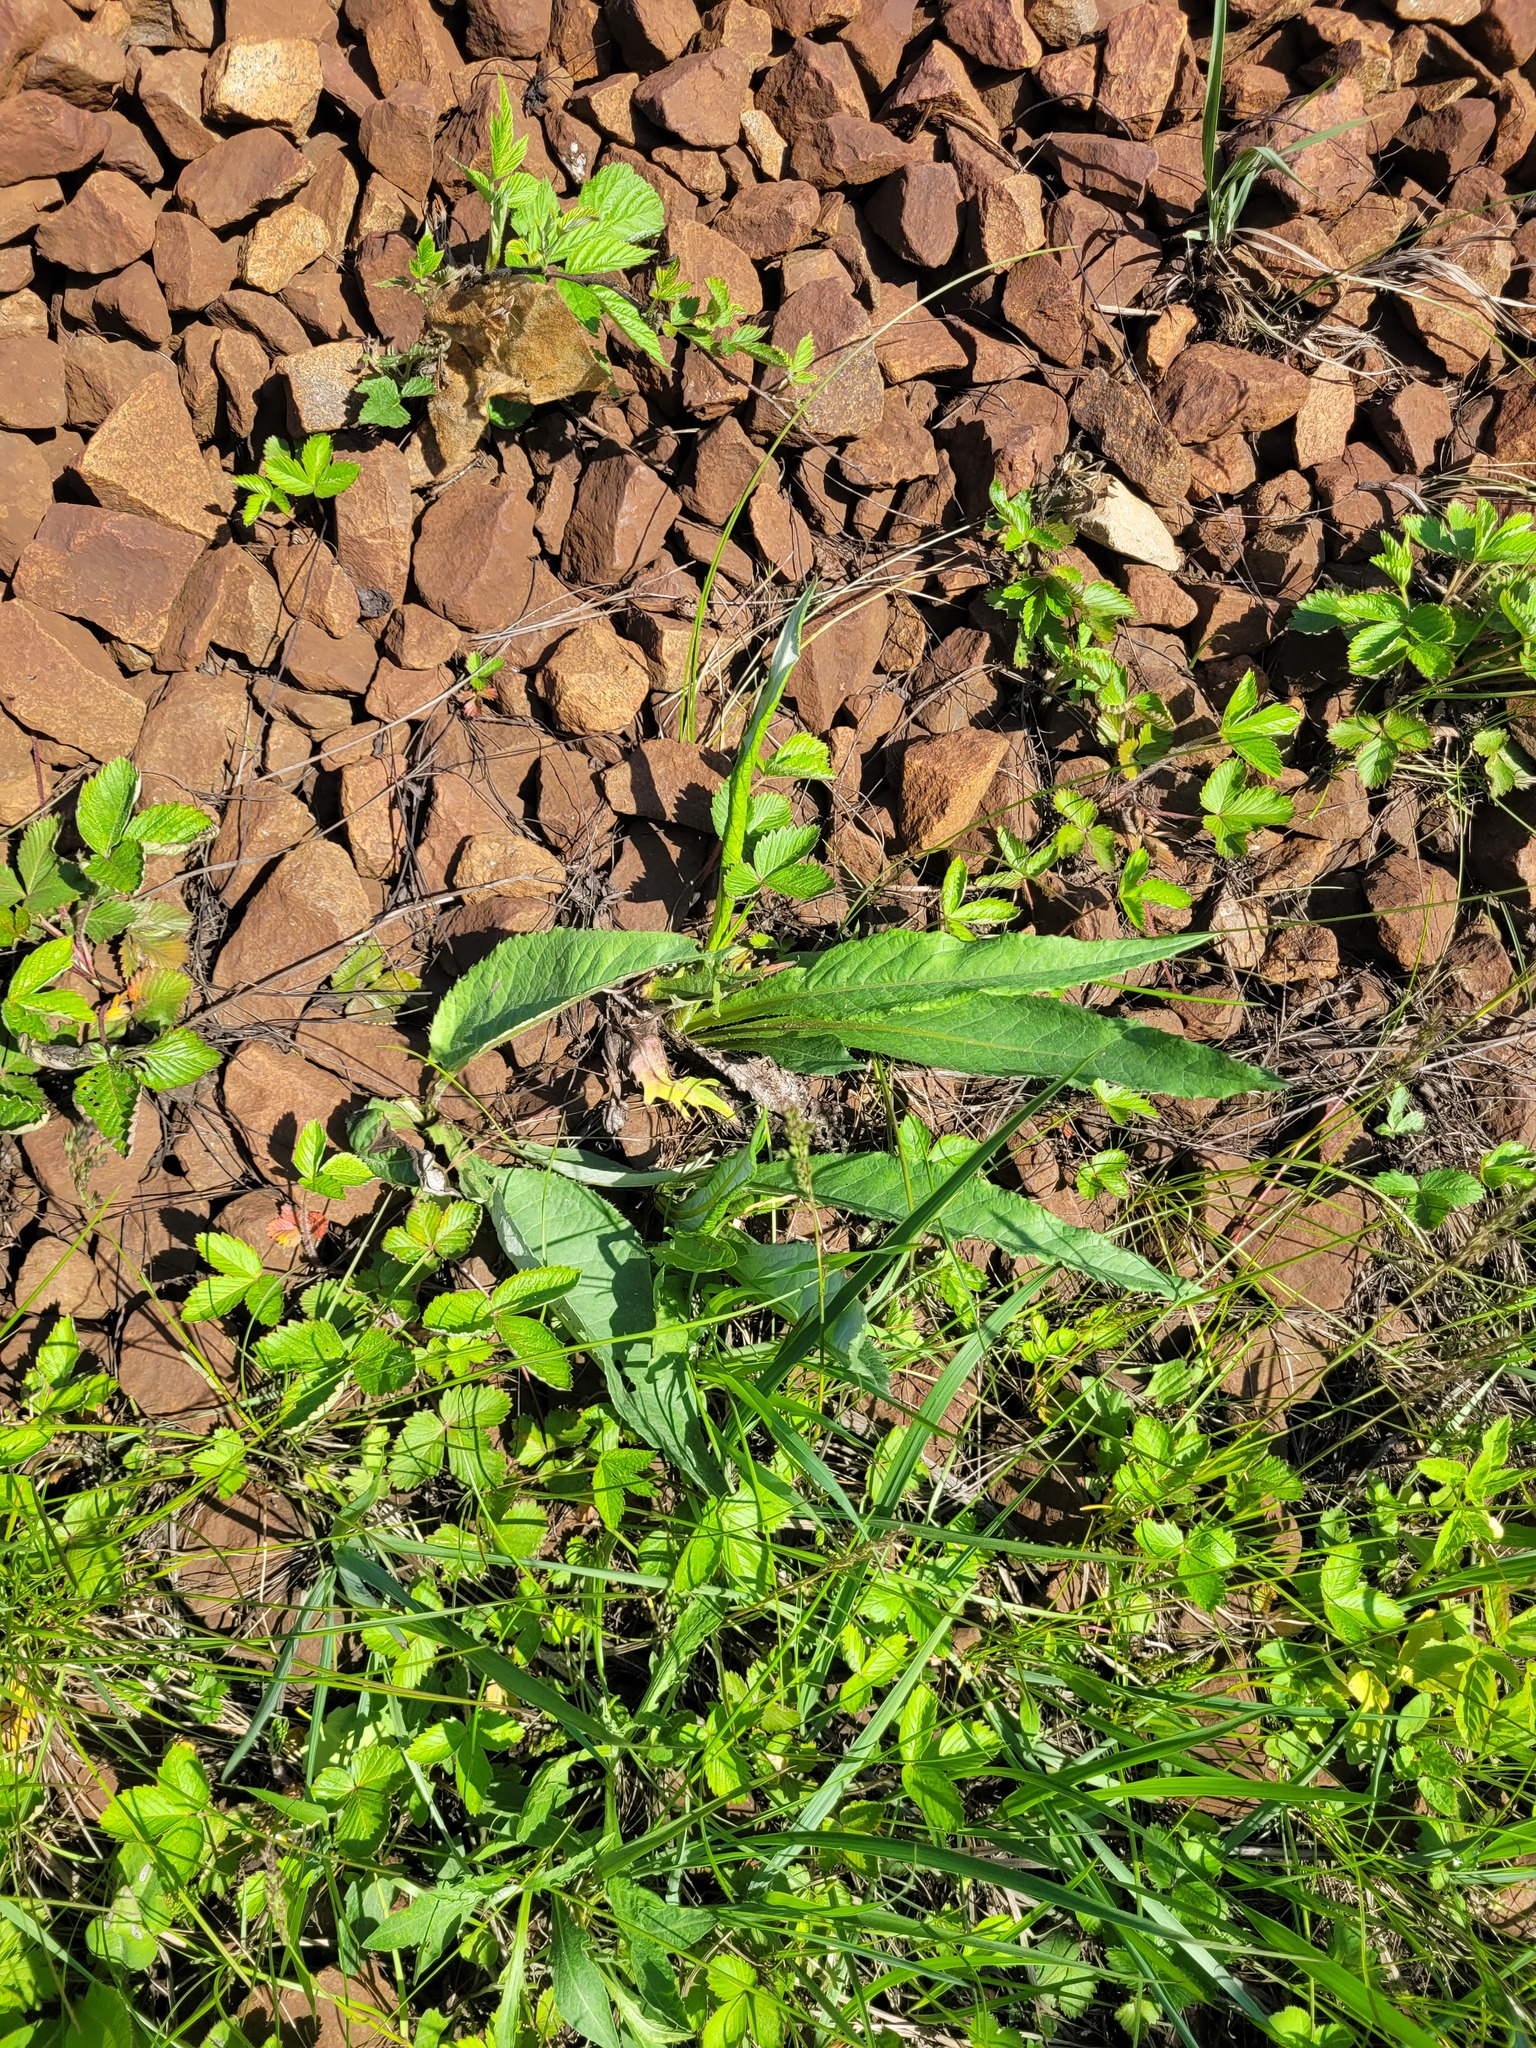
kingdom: Plantae
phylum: Tracheophyta
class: Magnoliopsida
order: Asterales
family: Asteraceae
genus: Cirsium
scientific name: Cirsium heterophyllum
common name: Melancholy thistle
